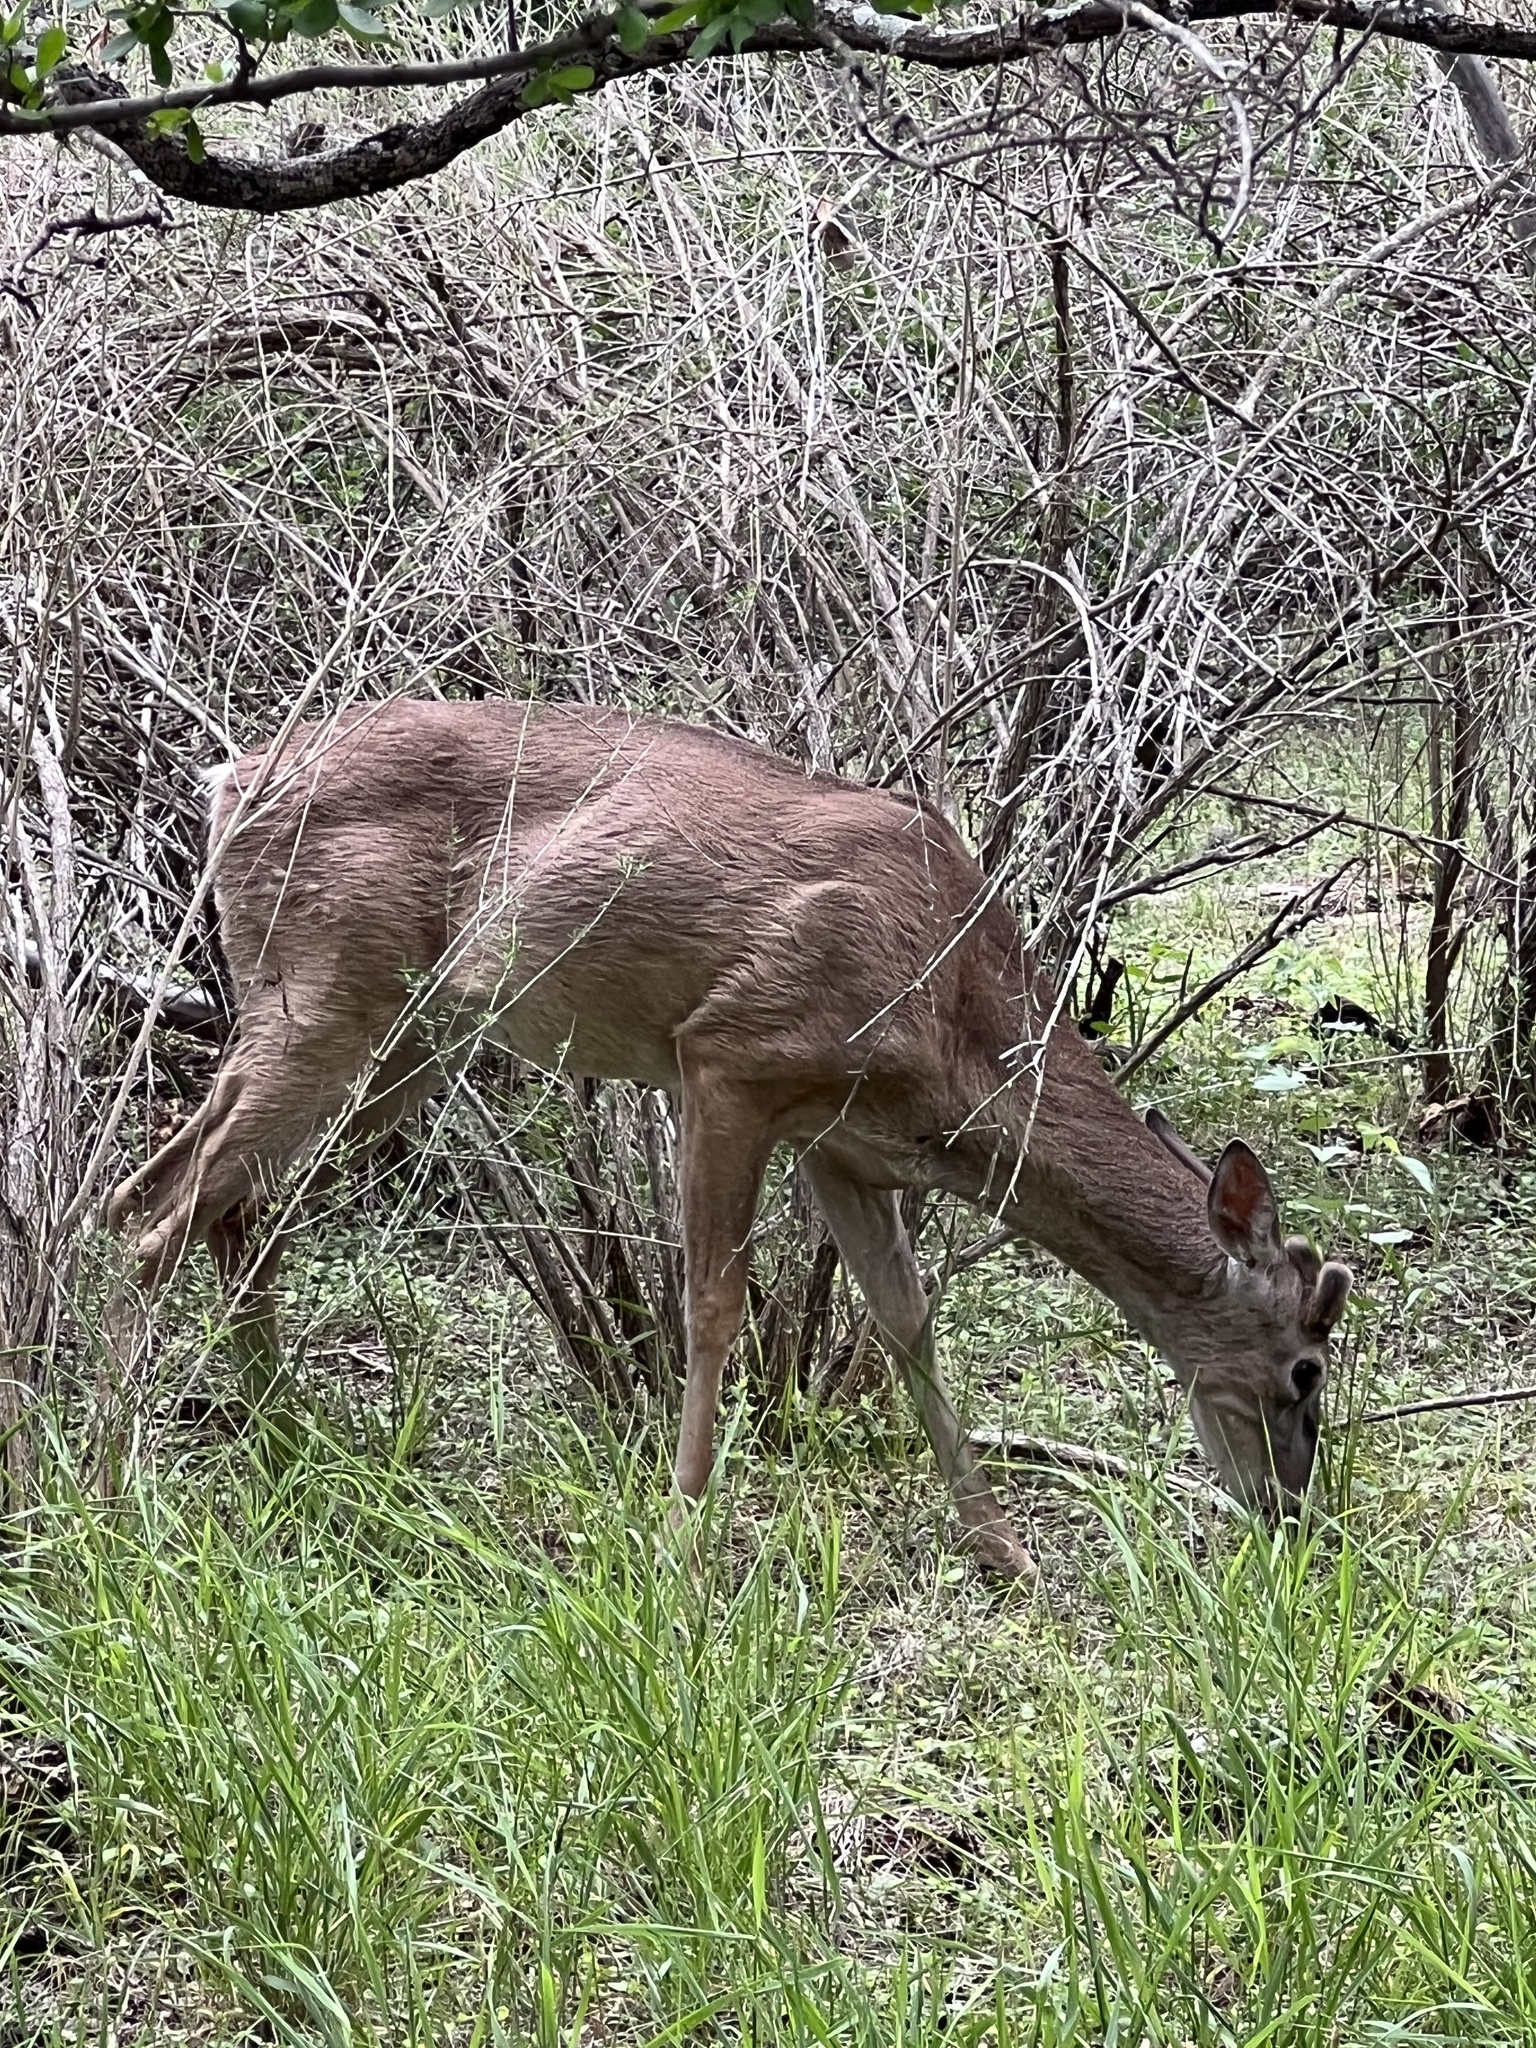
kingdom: Animalia
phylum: Chordata
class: Mammalia
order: Artiodactyla
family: Cervidae
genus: Odocoileus
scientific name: Odocoileus virginianus
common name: White-tailed deer
